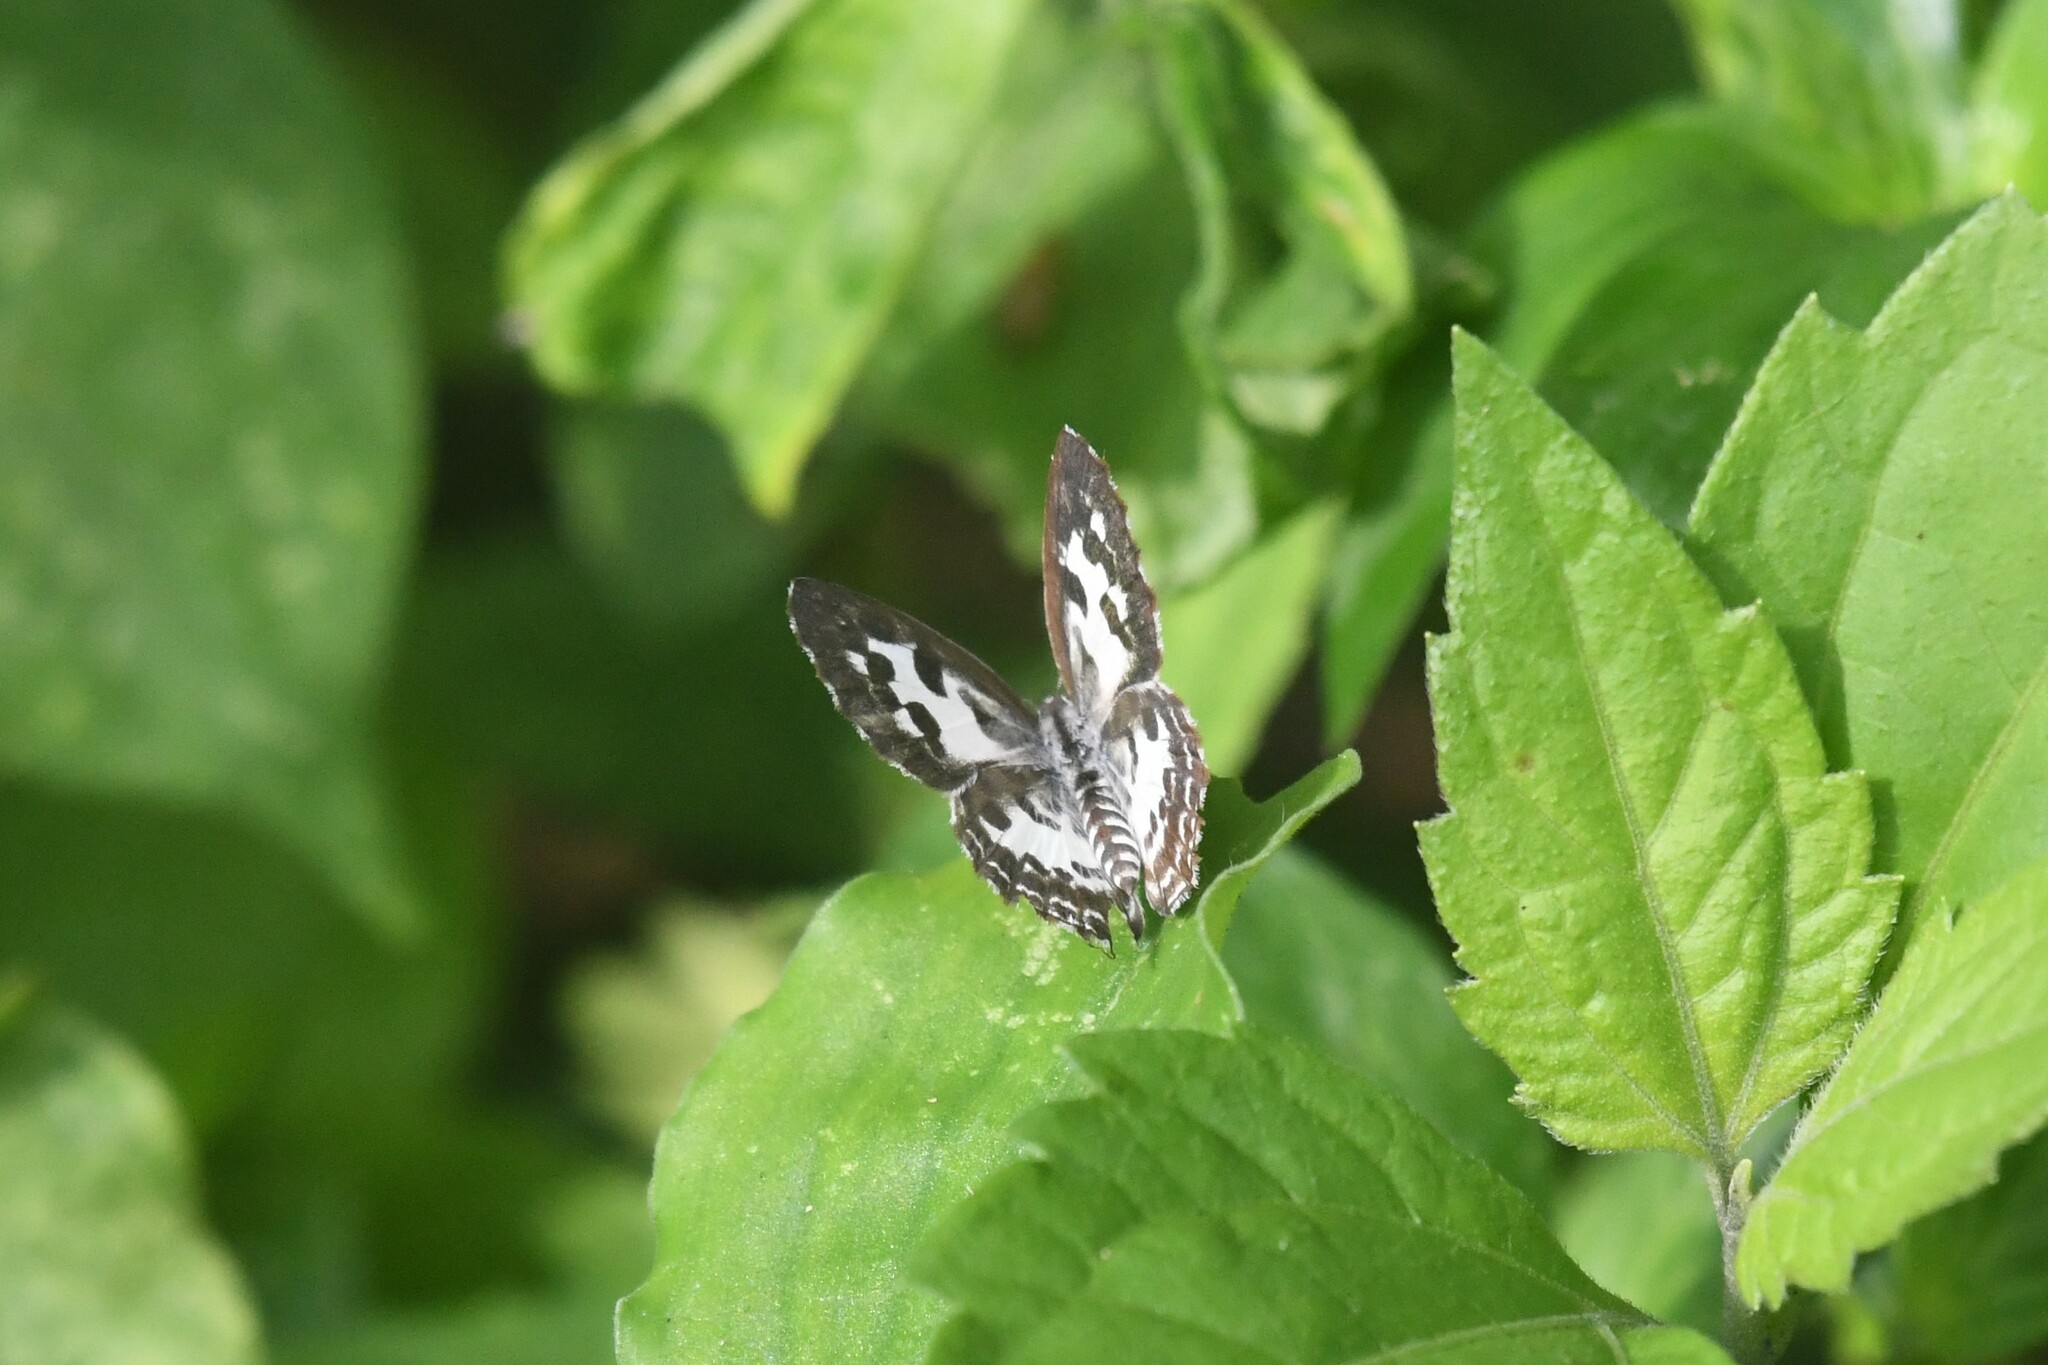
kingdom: Animalia
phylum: Arthropoda
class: Insecta
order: Lepidoptera
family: Lycaenidae
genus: Castalius
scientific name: Castalius rosimon
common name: Common pierrot
